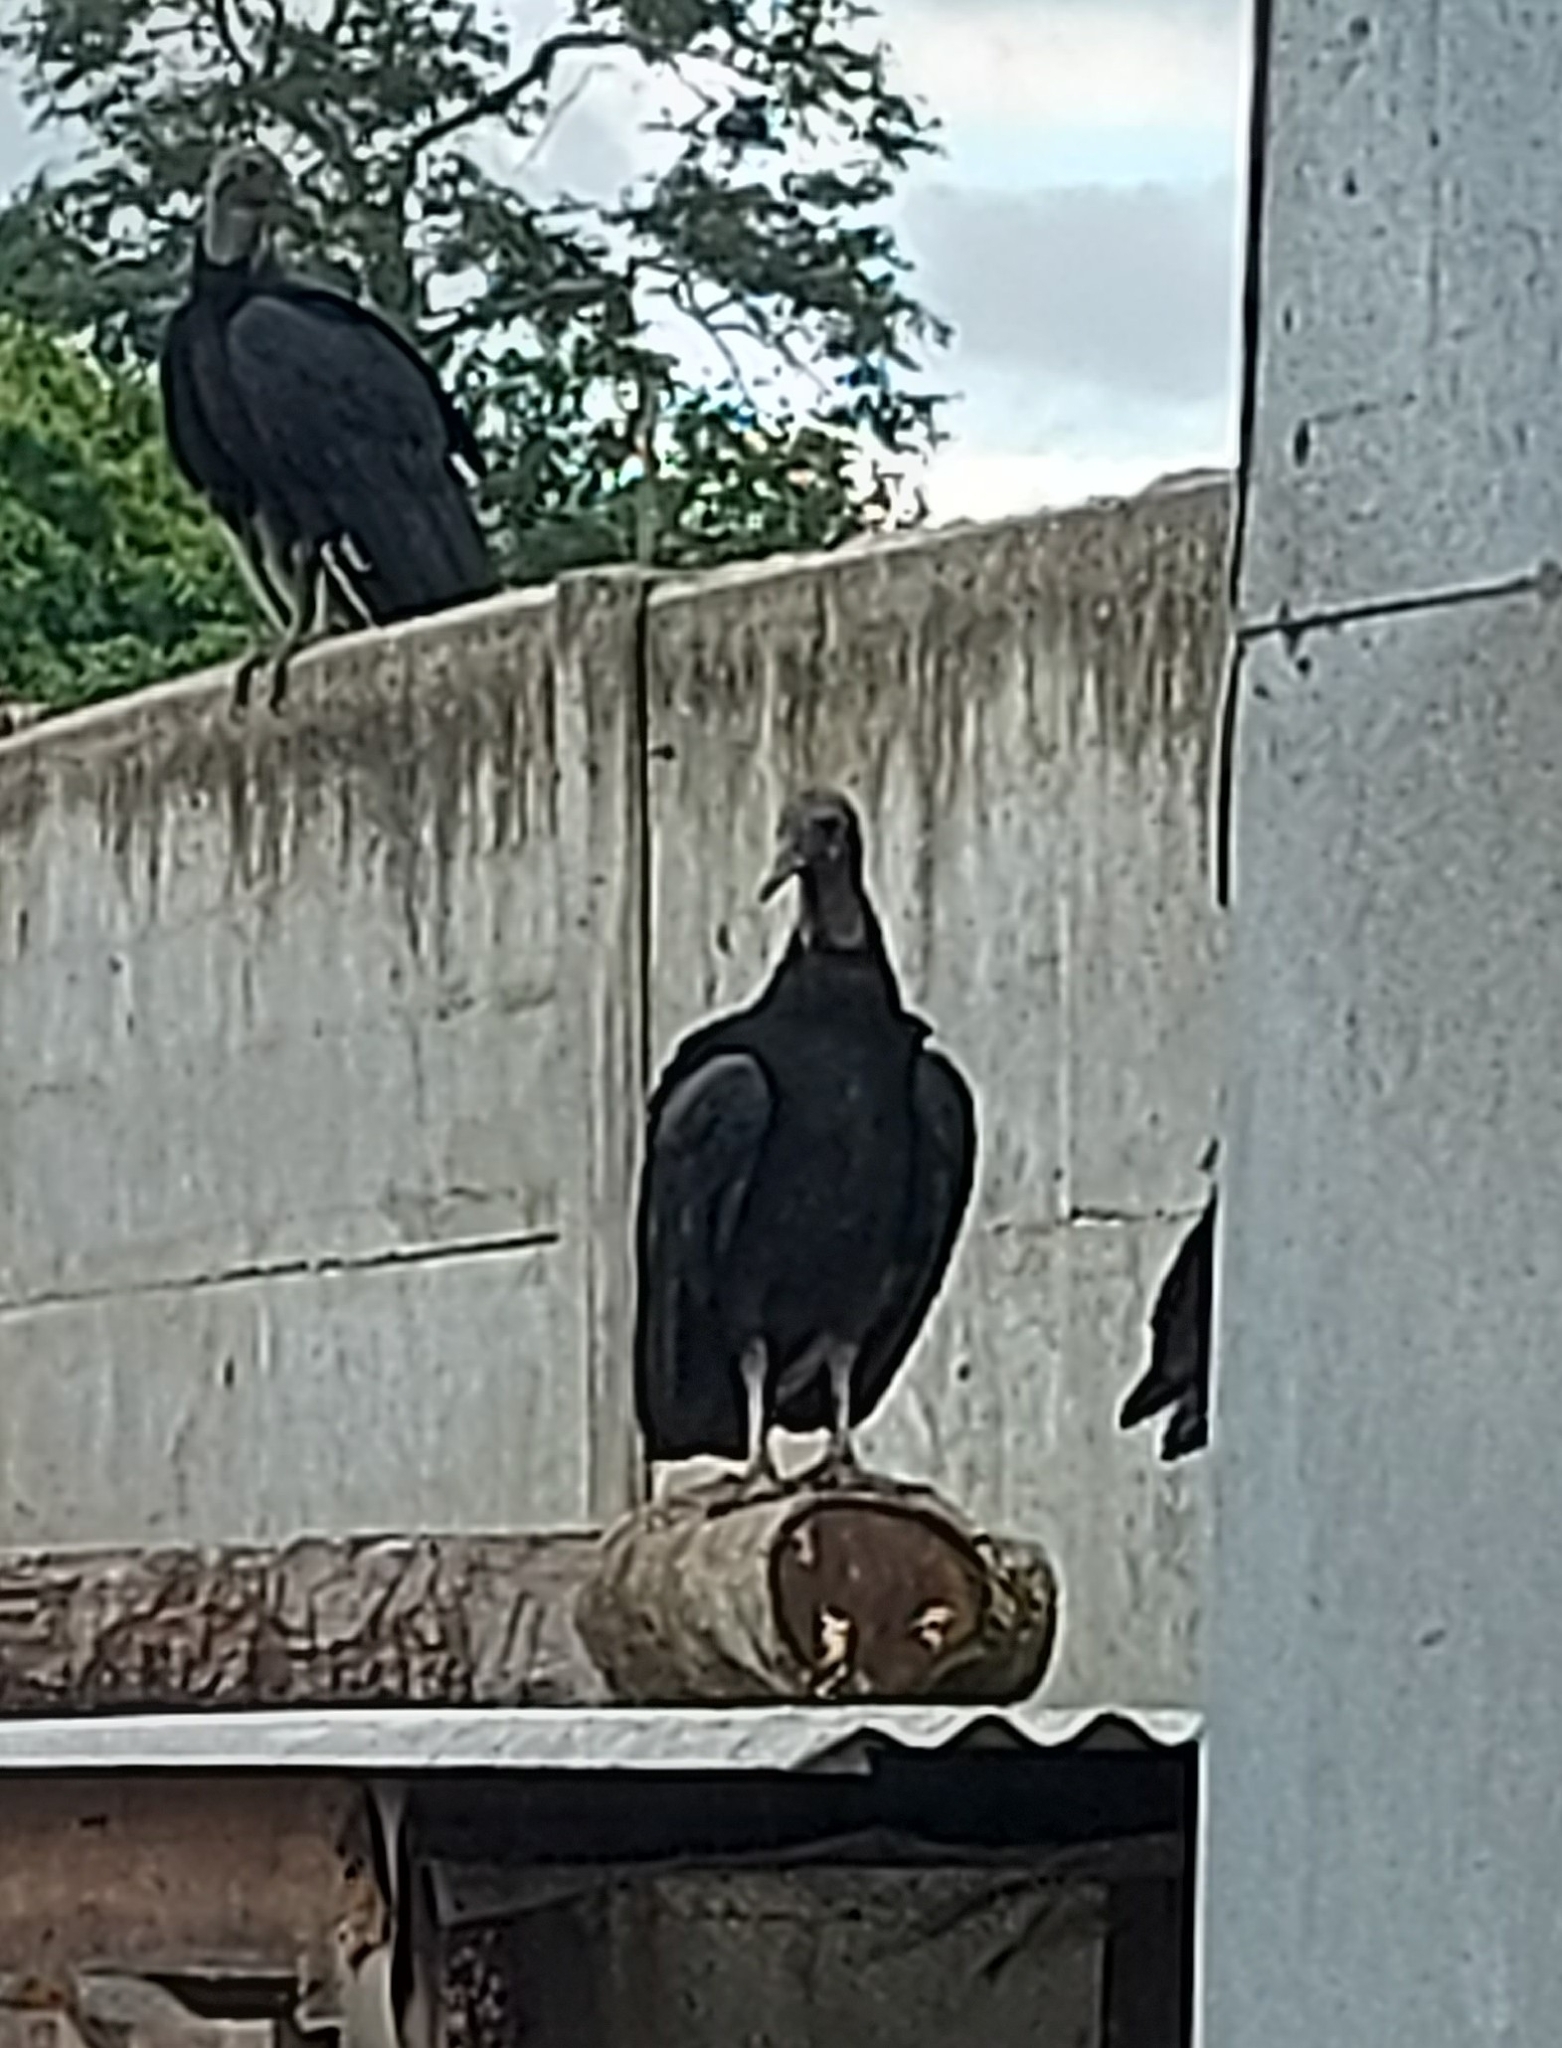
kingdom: Animalia
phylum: Chordata
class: Aves
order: Accipitriformes
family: Cathartidae
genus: Coragyps
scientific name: Coragyps atratus
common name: Black vulture
